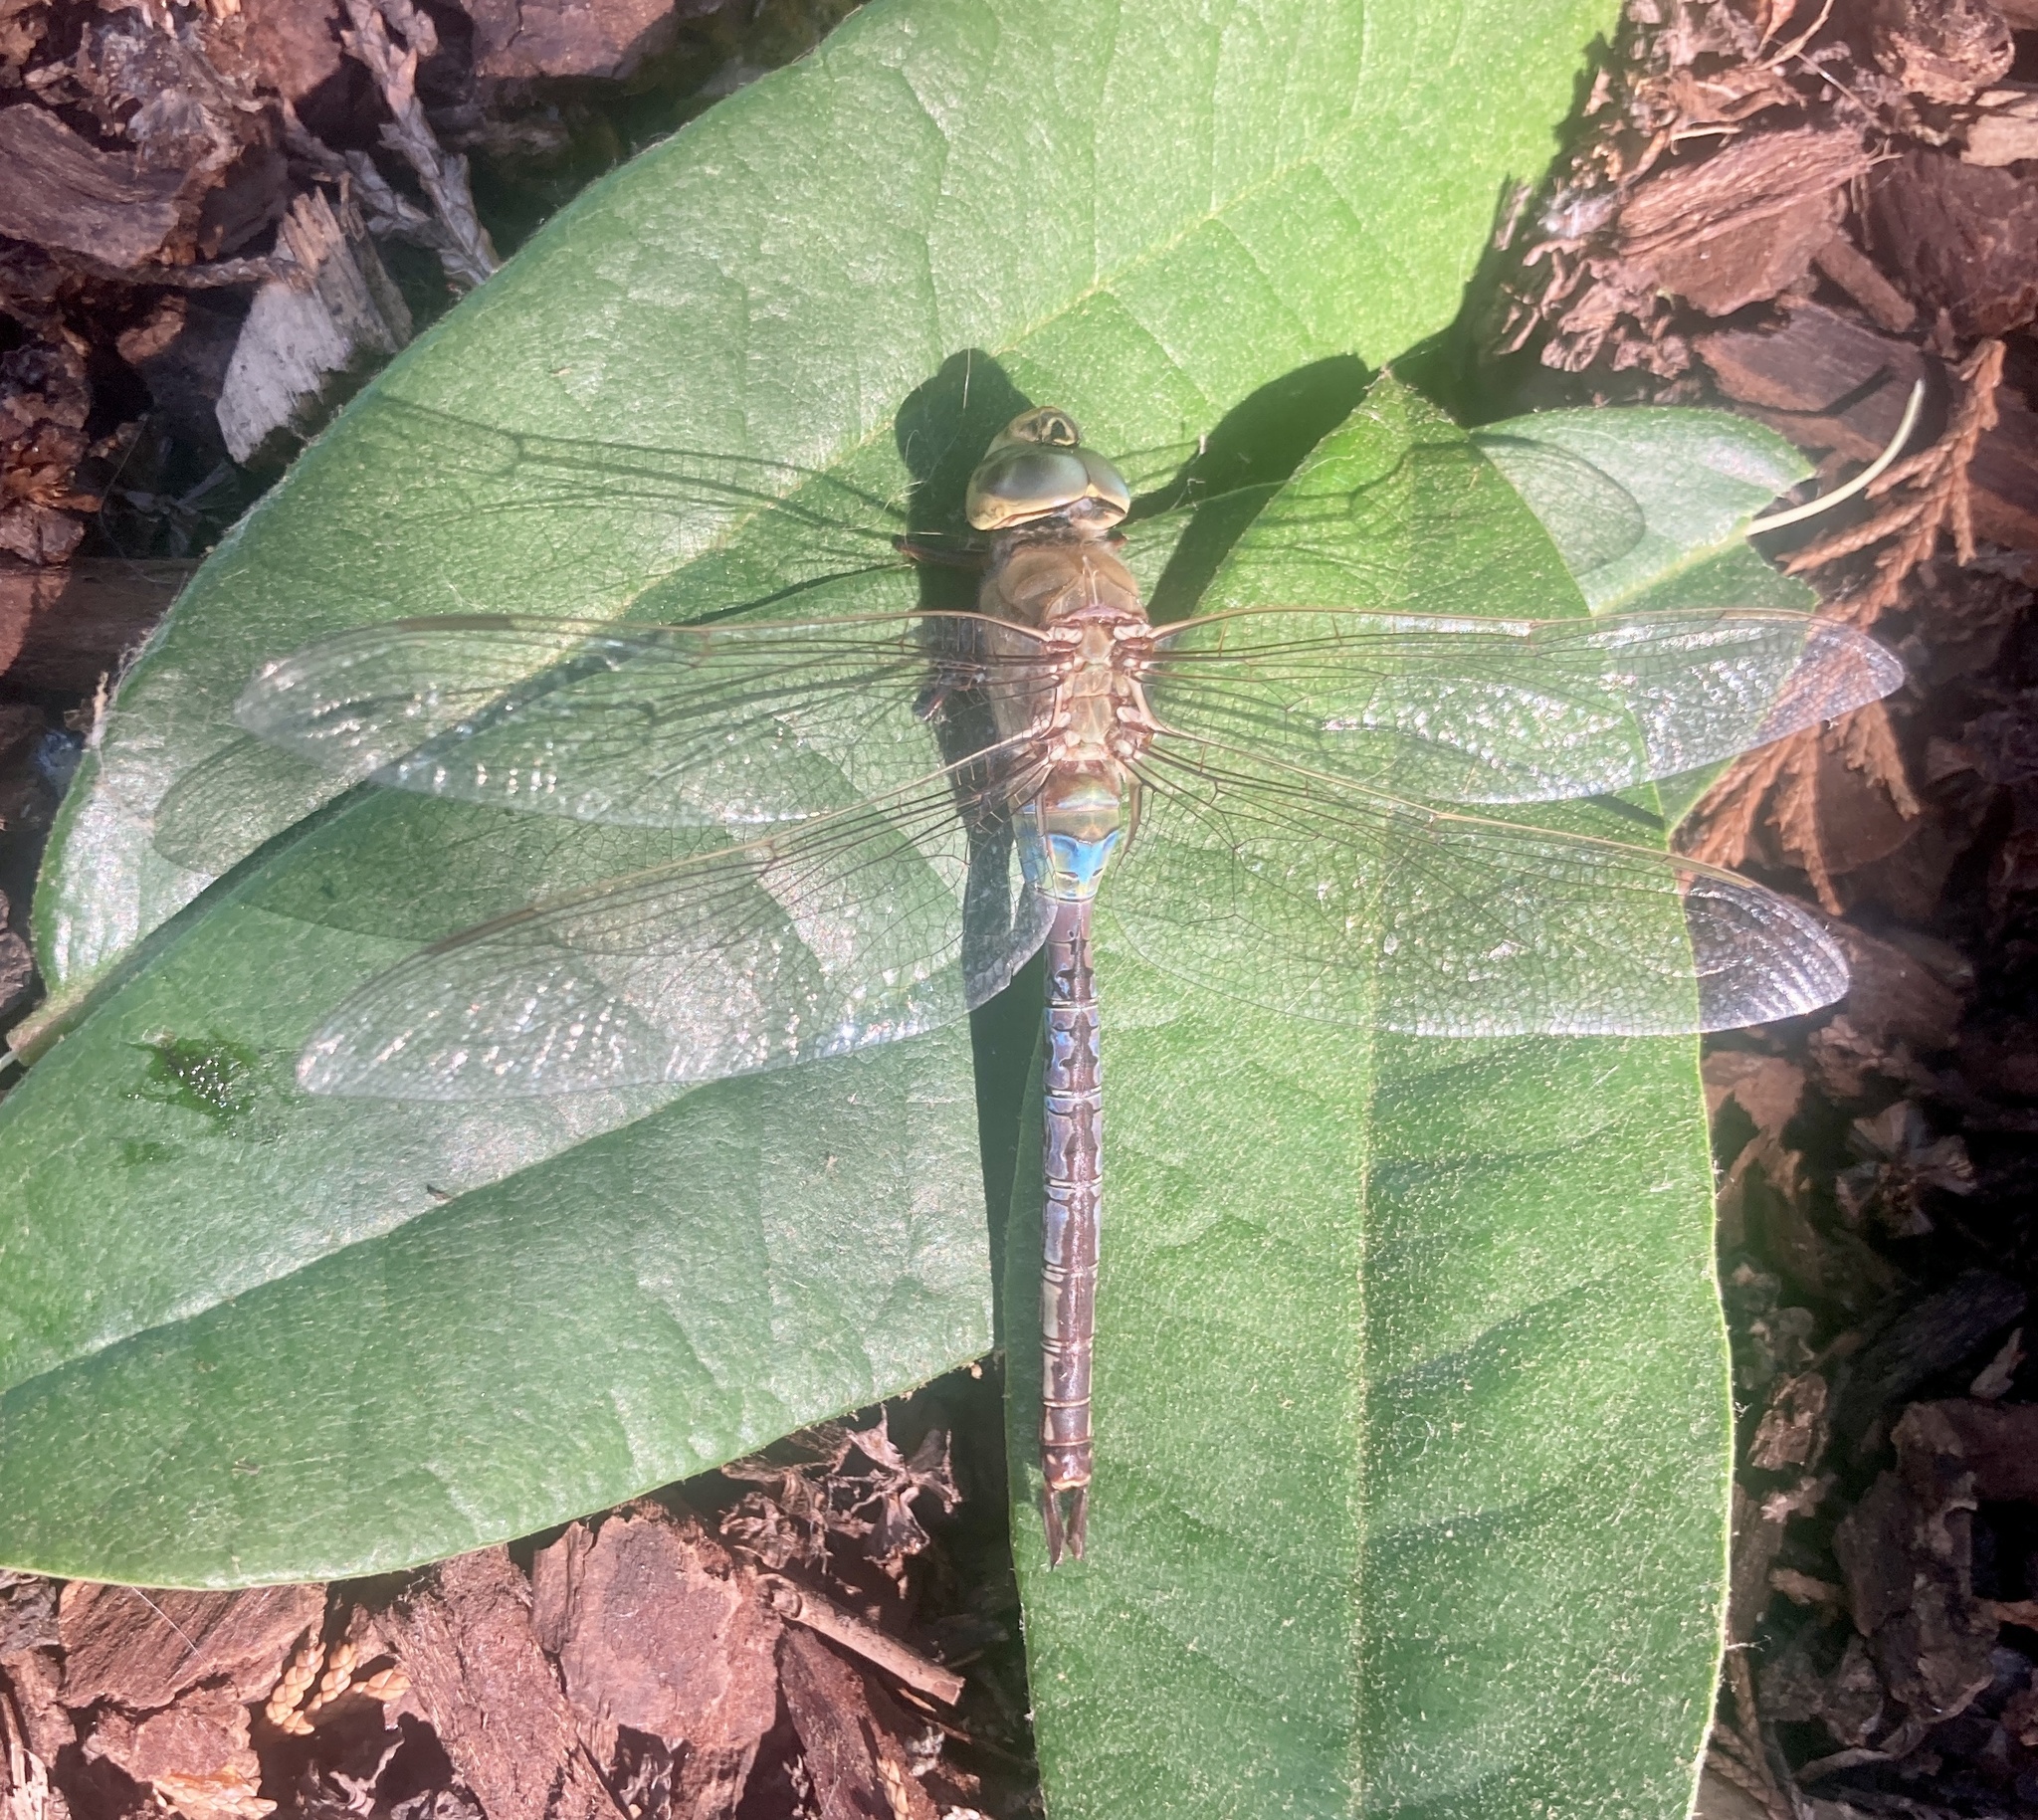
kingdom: Animalia
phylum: Arthropoda
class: Insecta
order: Odonata
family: Aeshnidae
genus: Anax
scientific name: Anax junius
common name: Common green darner
